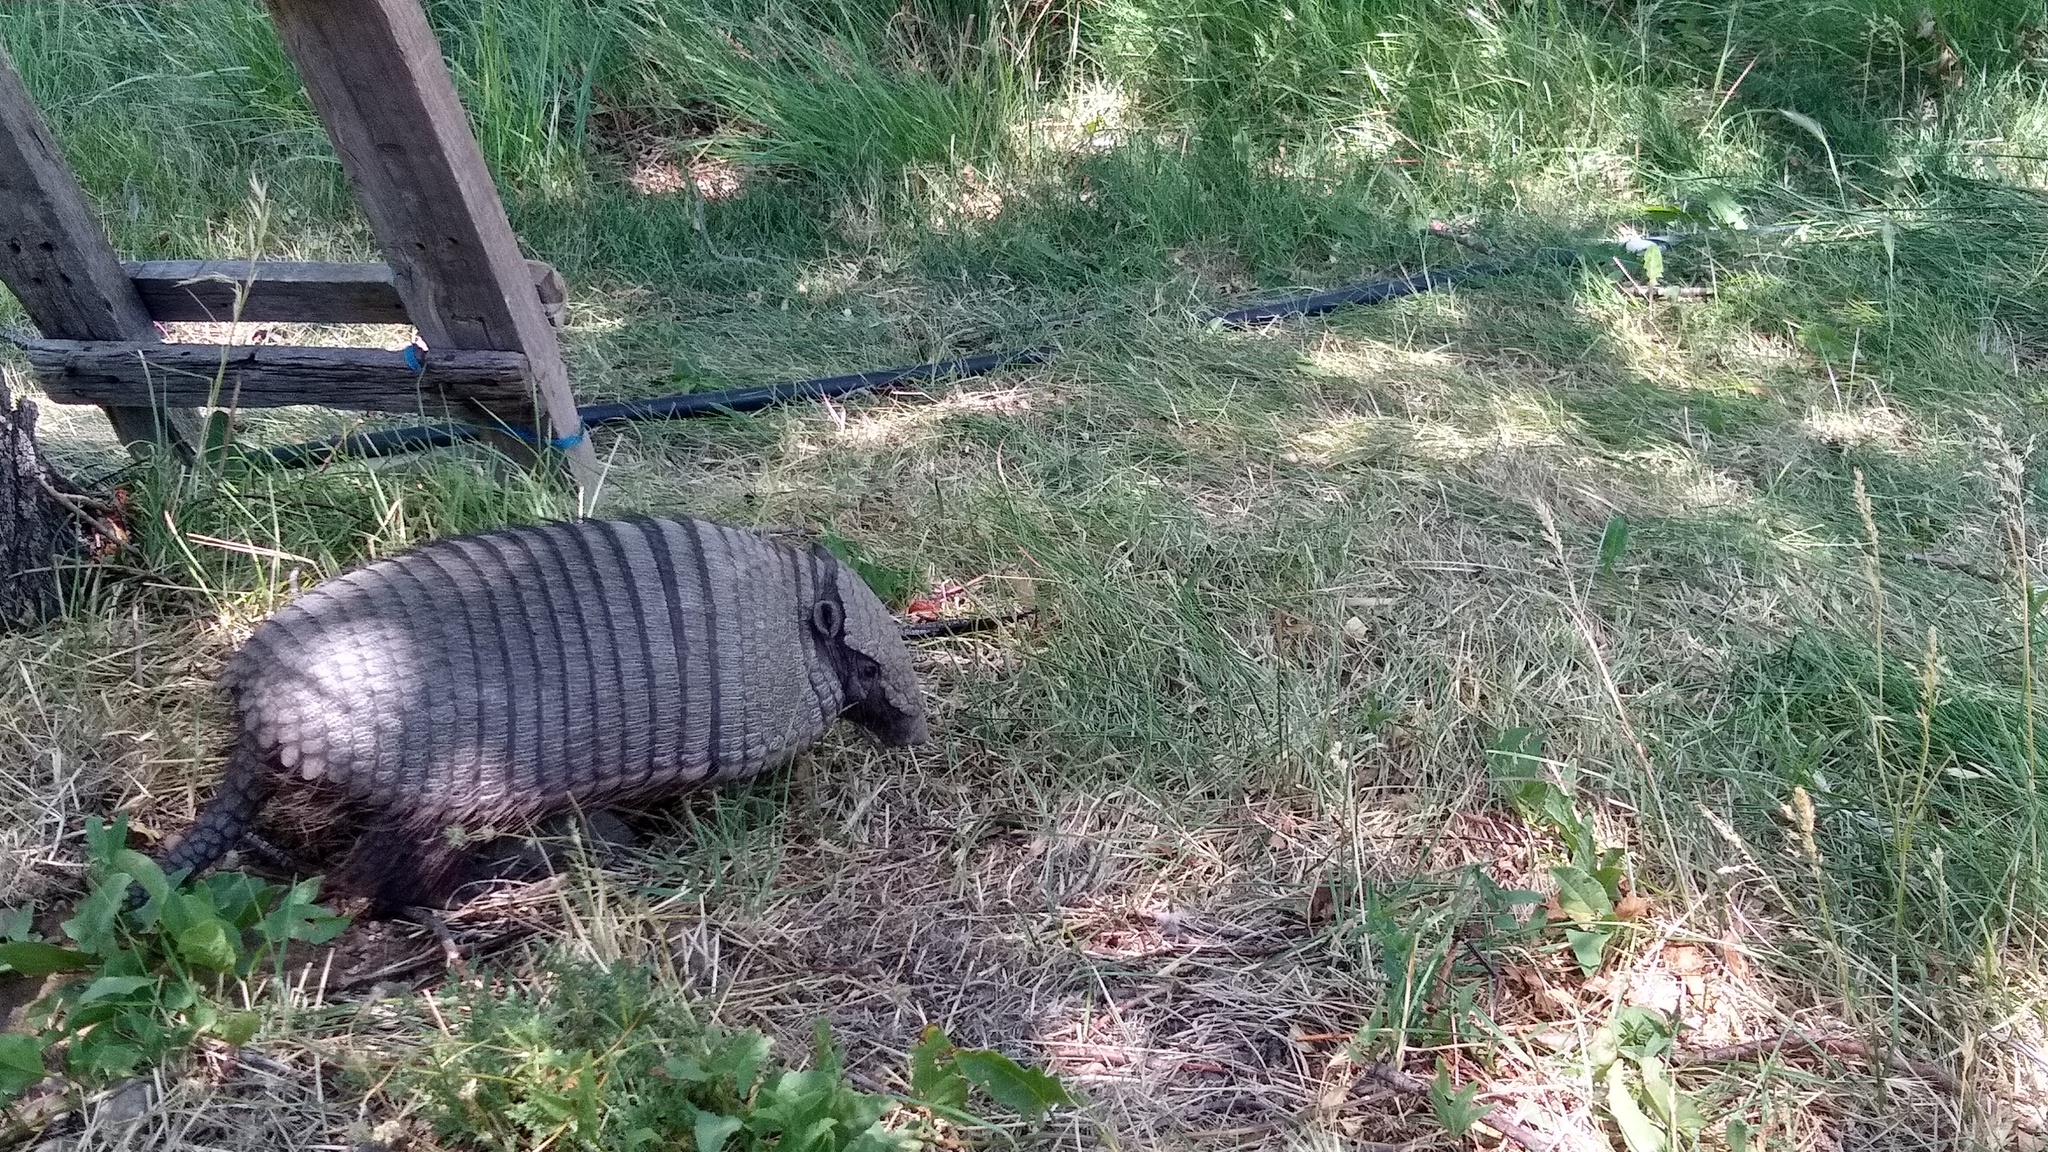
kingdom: Animalia
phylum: Chordata
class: Mammalia
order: Cingulata
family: Dasypodidae
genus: Chaetophractus
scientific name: Chaetophractus villosus
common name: Big hairy armadillo
